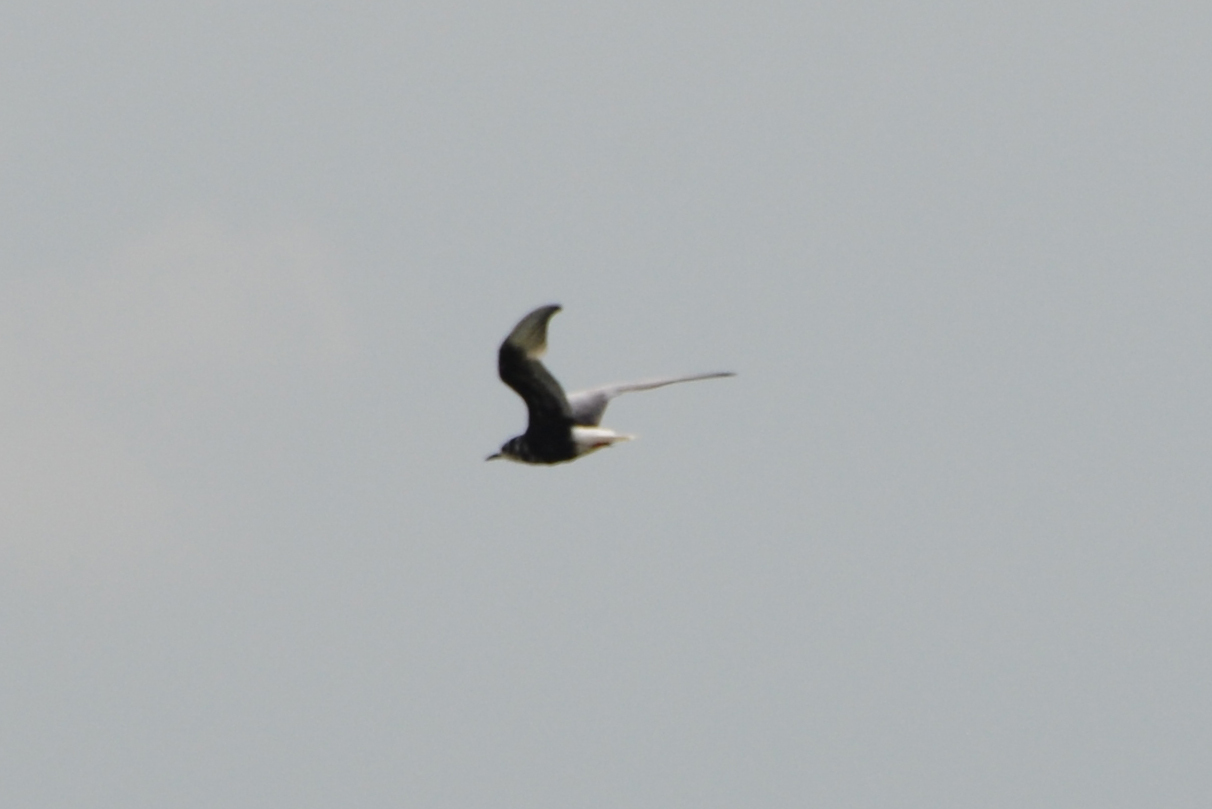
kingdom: Animalia
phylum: Chordata
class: Aves
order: Charadriiformes
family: Laridae
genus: Chlidonias
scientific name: Chlidonias leucopterus
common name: White-winged tern
